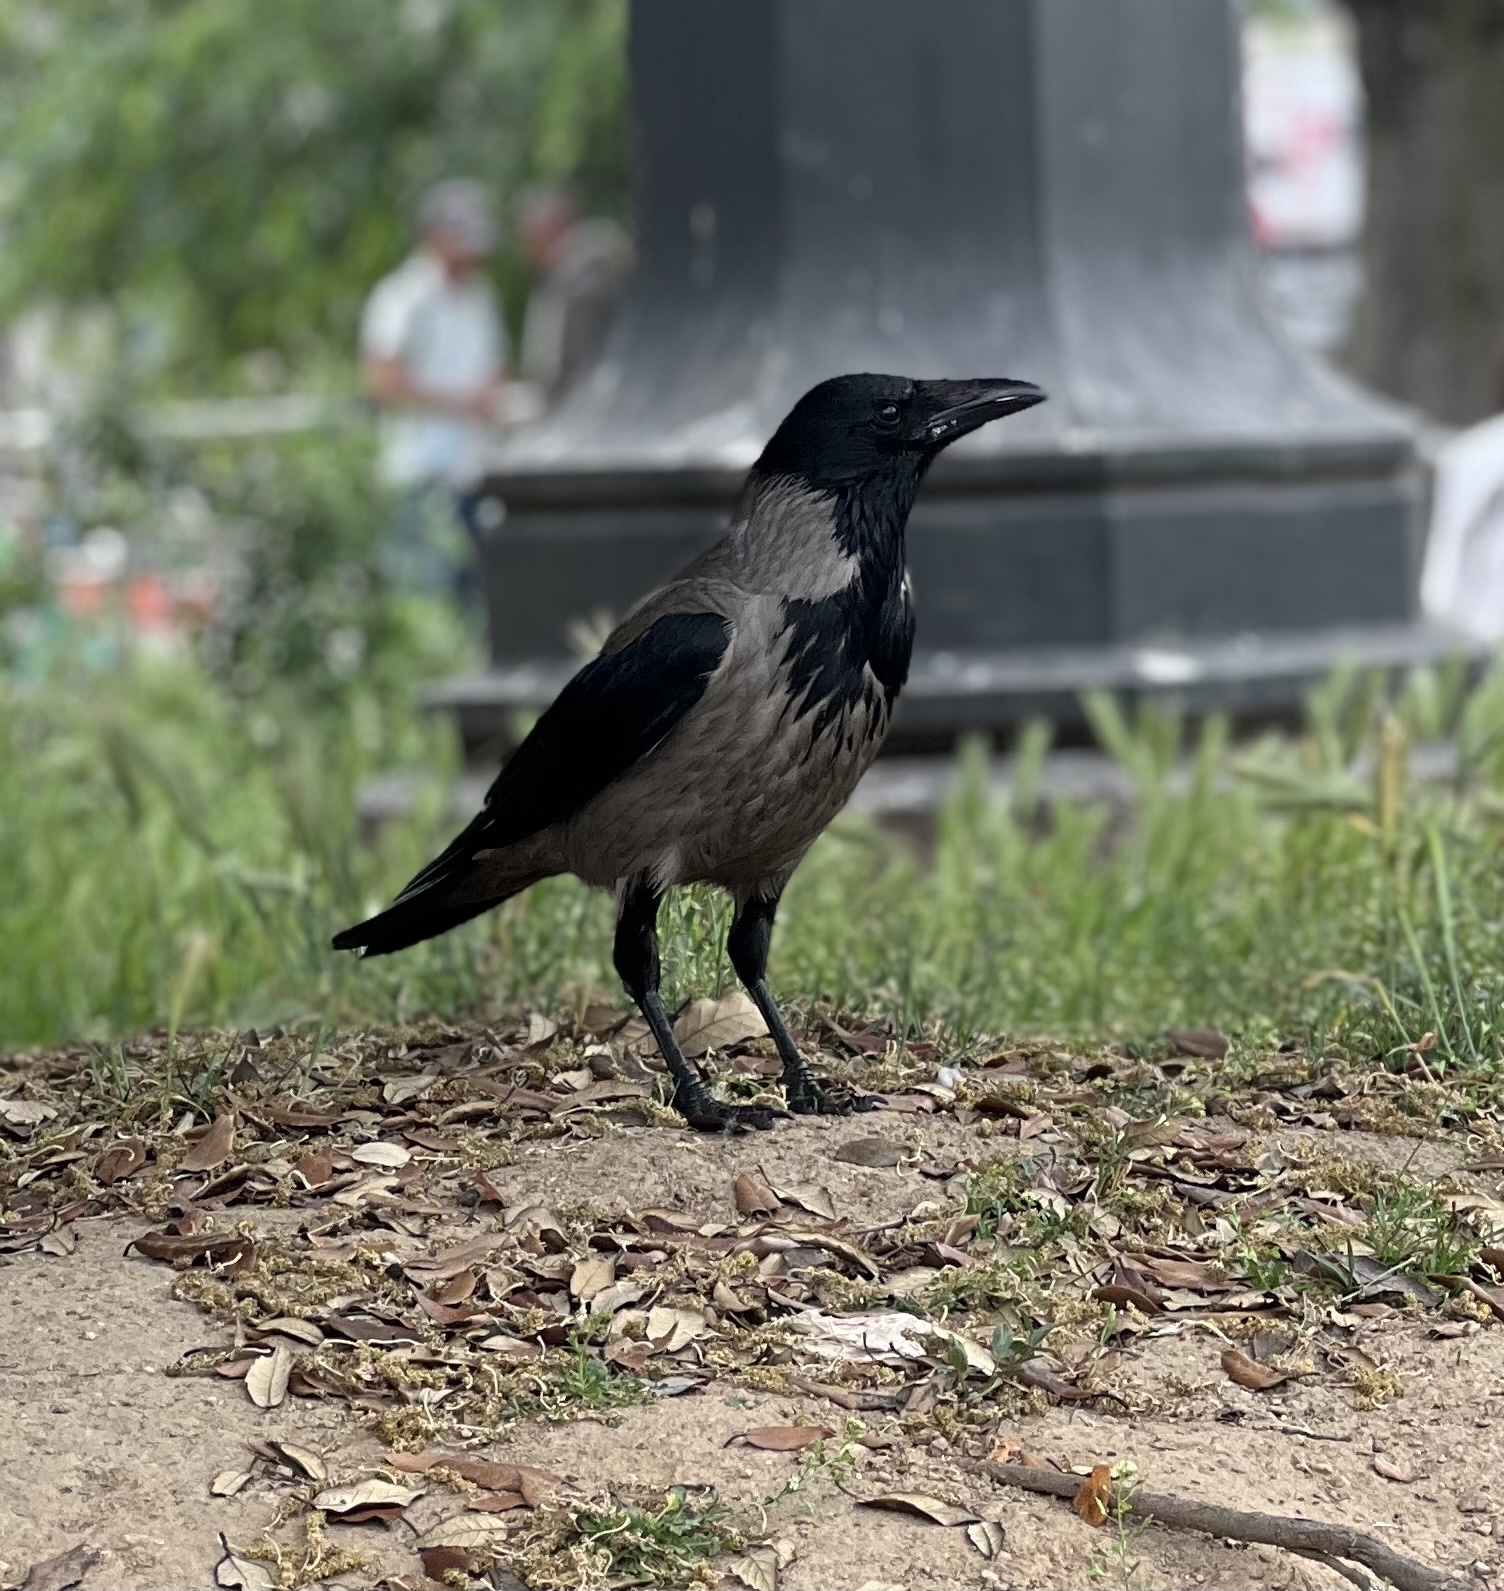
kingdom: Animalia
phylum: Chordata
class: Aves
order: Passeriformes
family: Corvidae
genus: Corvus
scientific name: Corvus cornix
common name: Hooded crow
